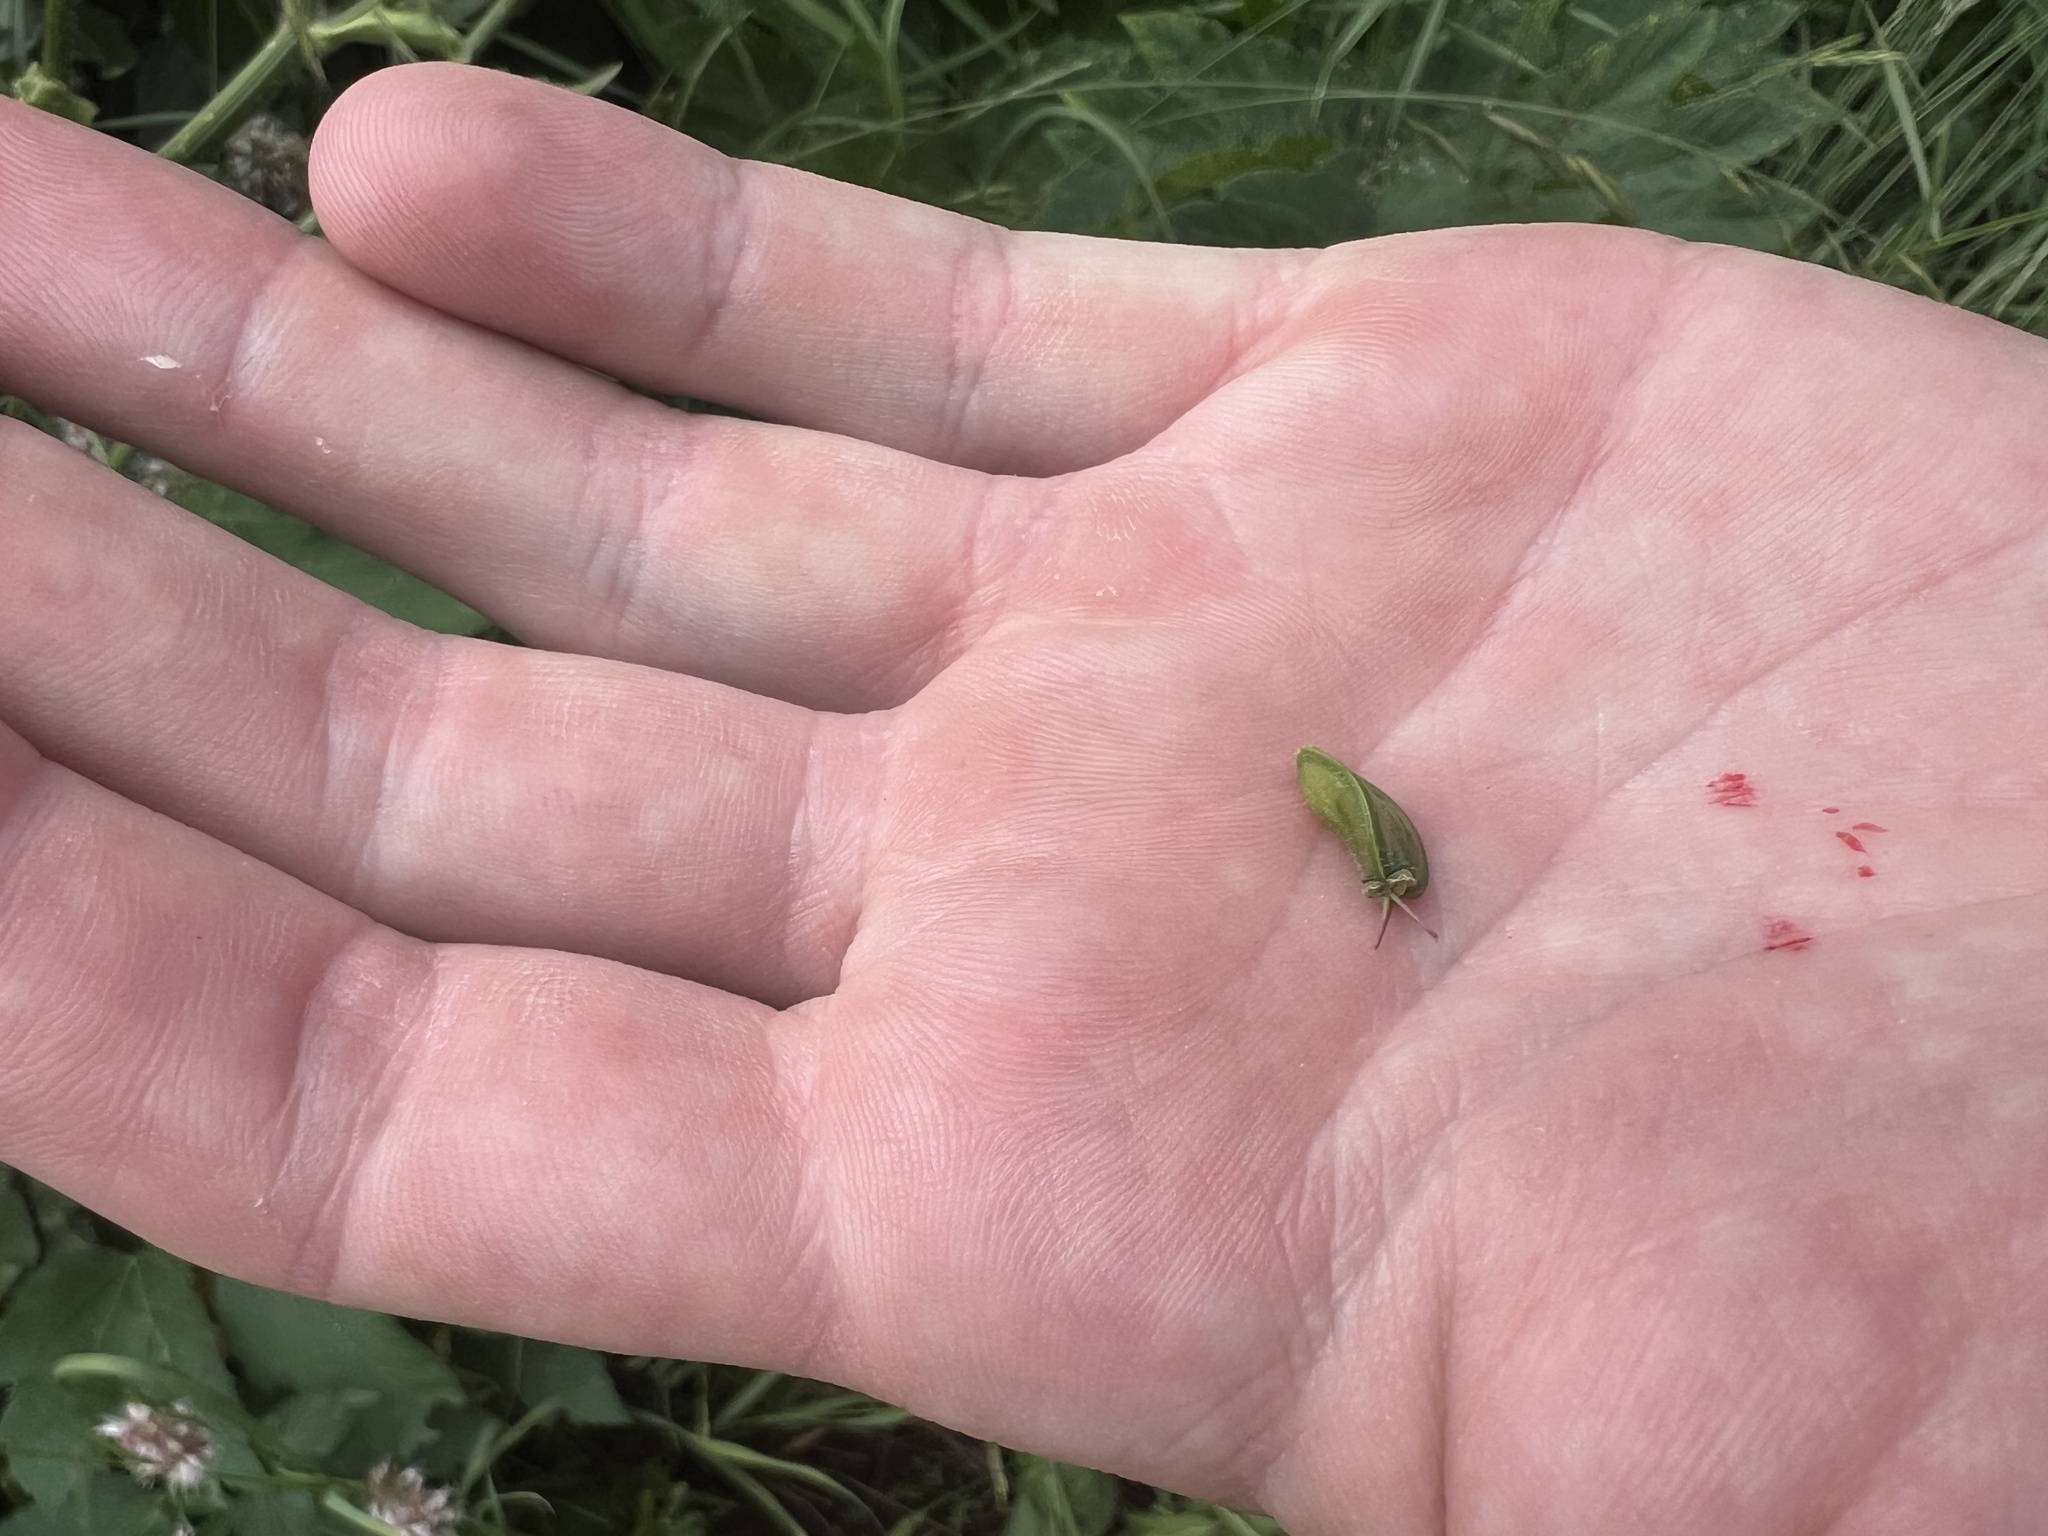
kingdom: Plantae
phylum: Tracheophyta
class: Magnoliopsida
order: Apiales
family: Apiaceae
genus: Heracleum
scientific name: Heracleum maximum
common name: American cow parsnip
